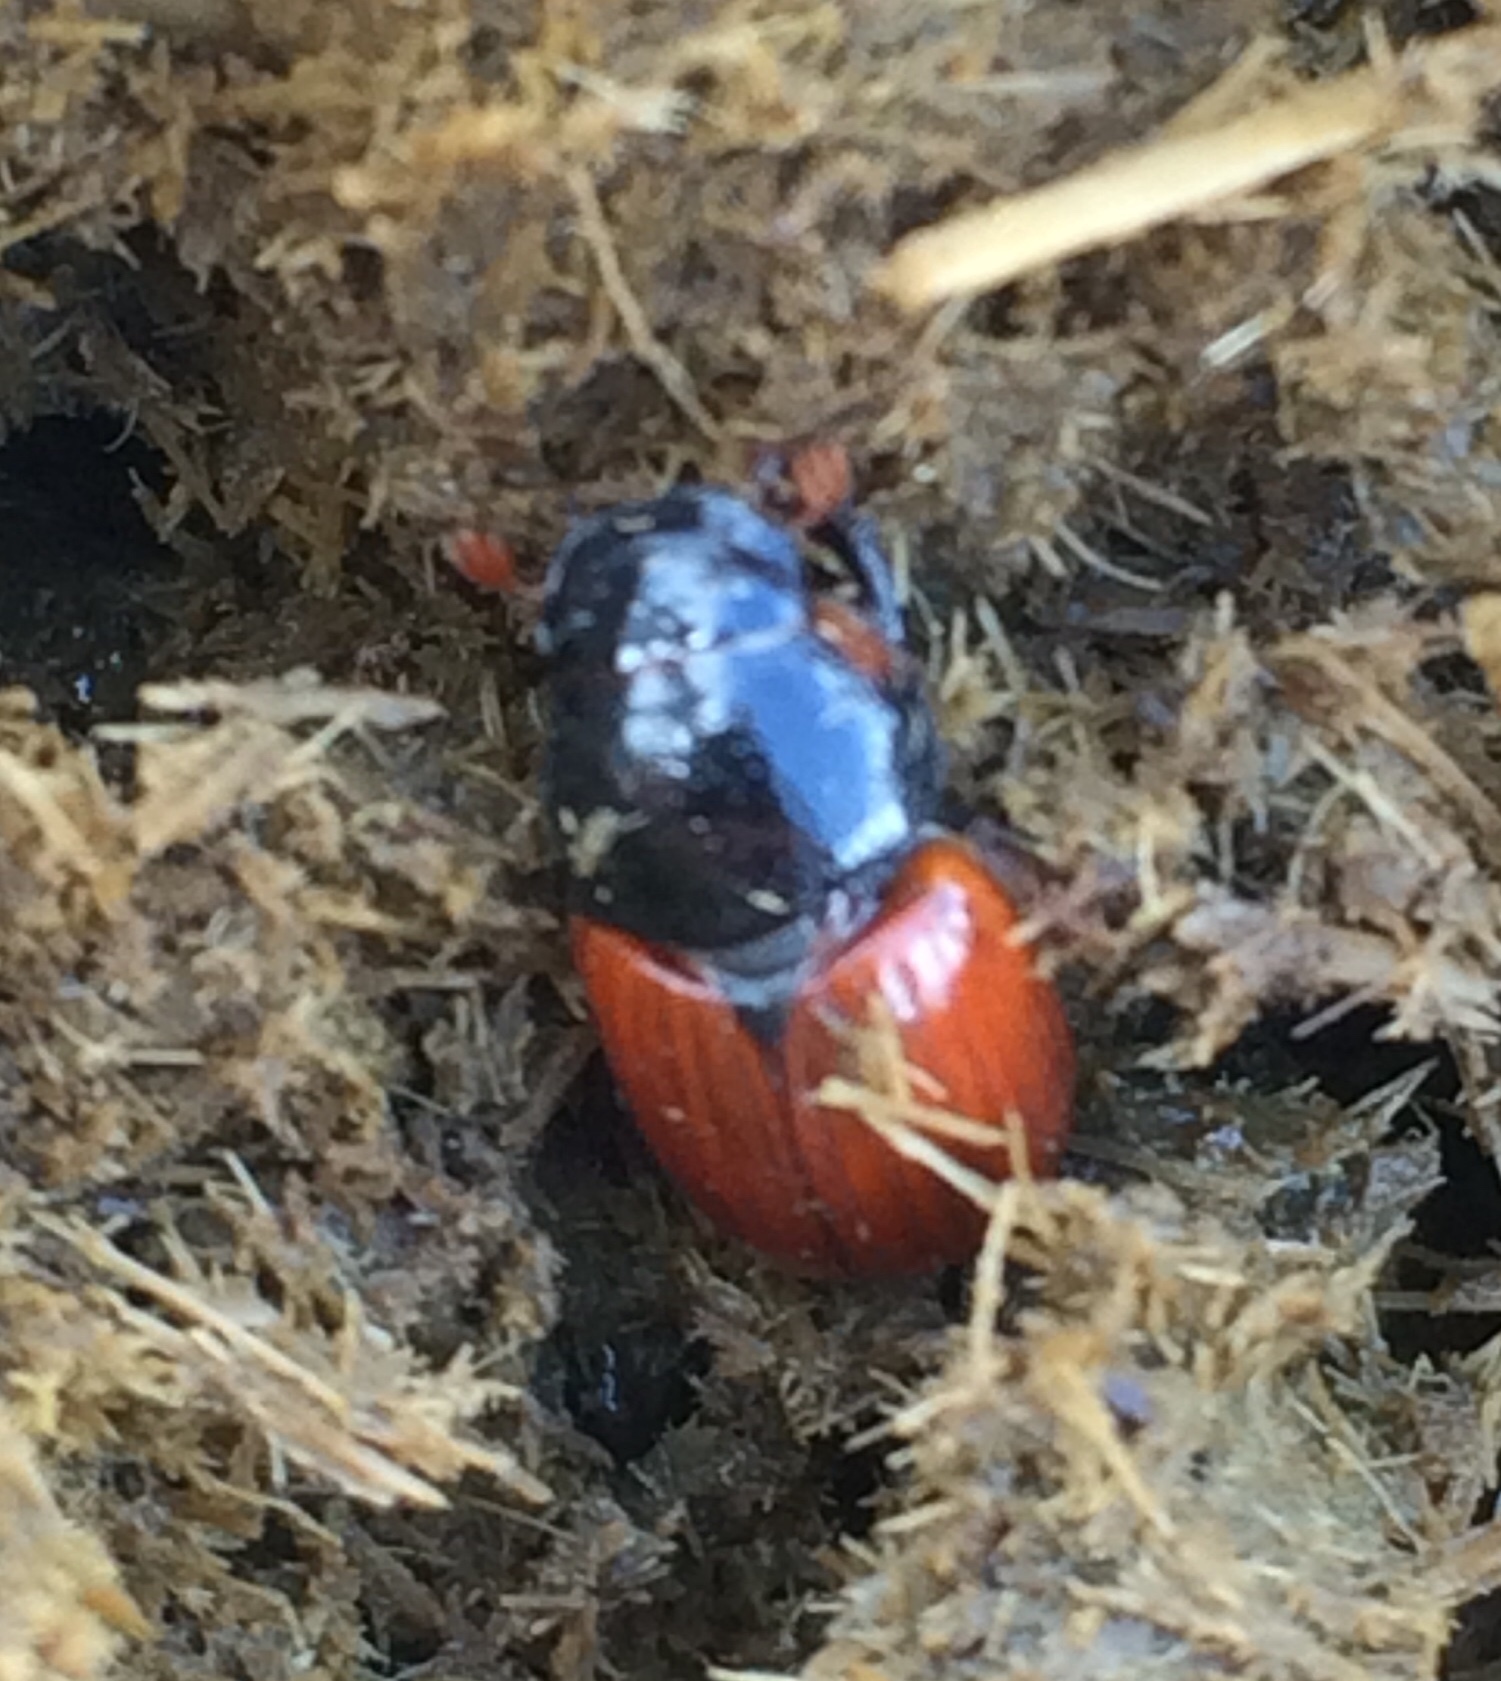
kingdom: Animalia
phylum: Arthropoda
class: Insecta
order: Coleoptera
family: Scarabaeidae
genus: Aphodius
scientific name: Aphodius fimetarius
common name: Common dung beetle
